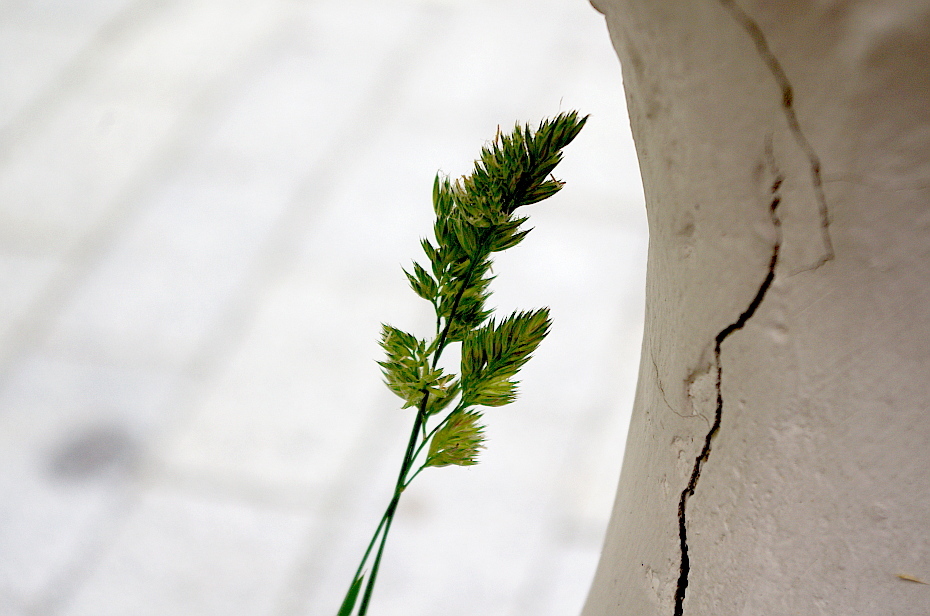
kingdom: Plantae
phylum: Tracheophyta
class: Liliopsida
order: Poales
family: Poaceae
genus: Dactylis
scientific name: Dactylis glomerata
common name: Orchardgrass
